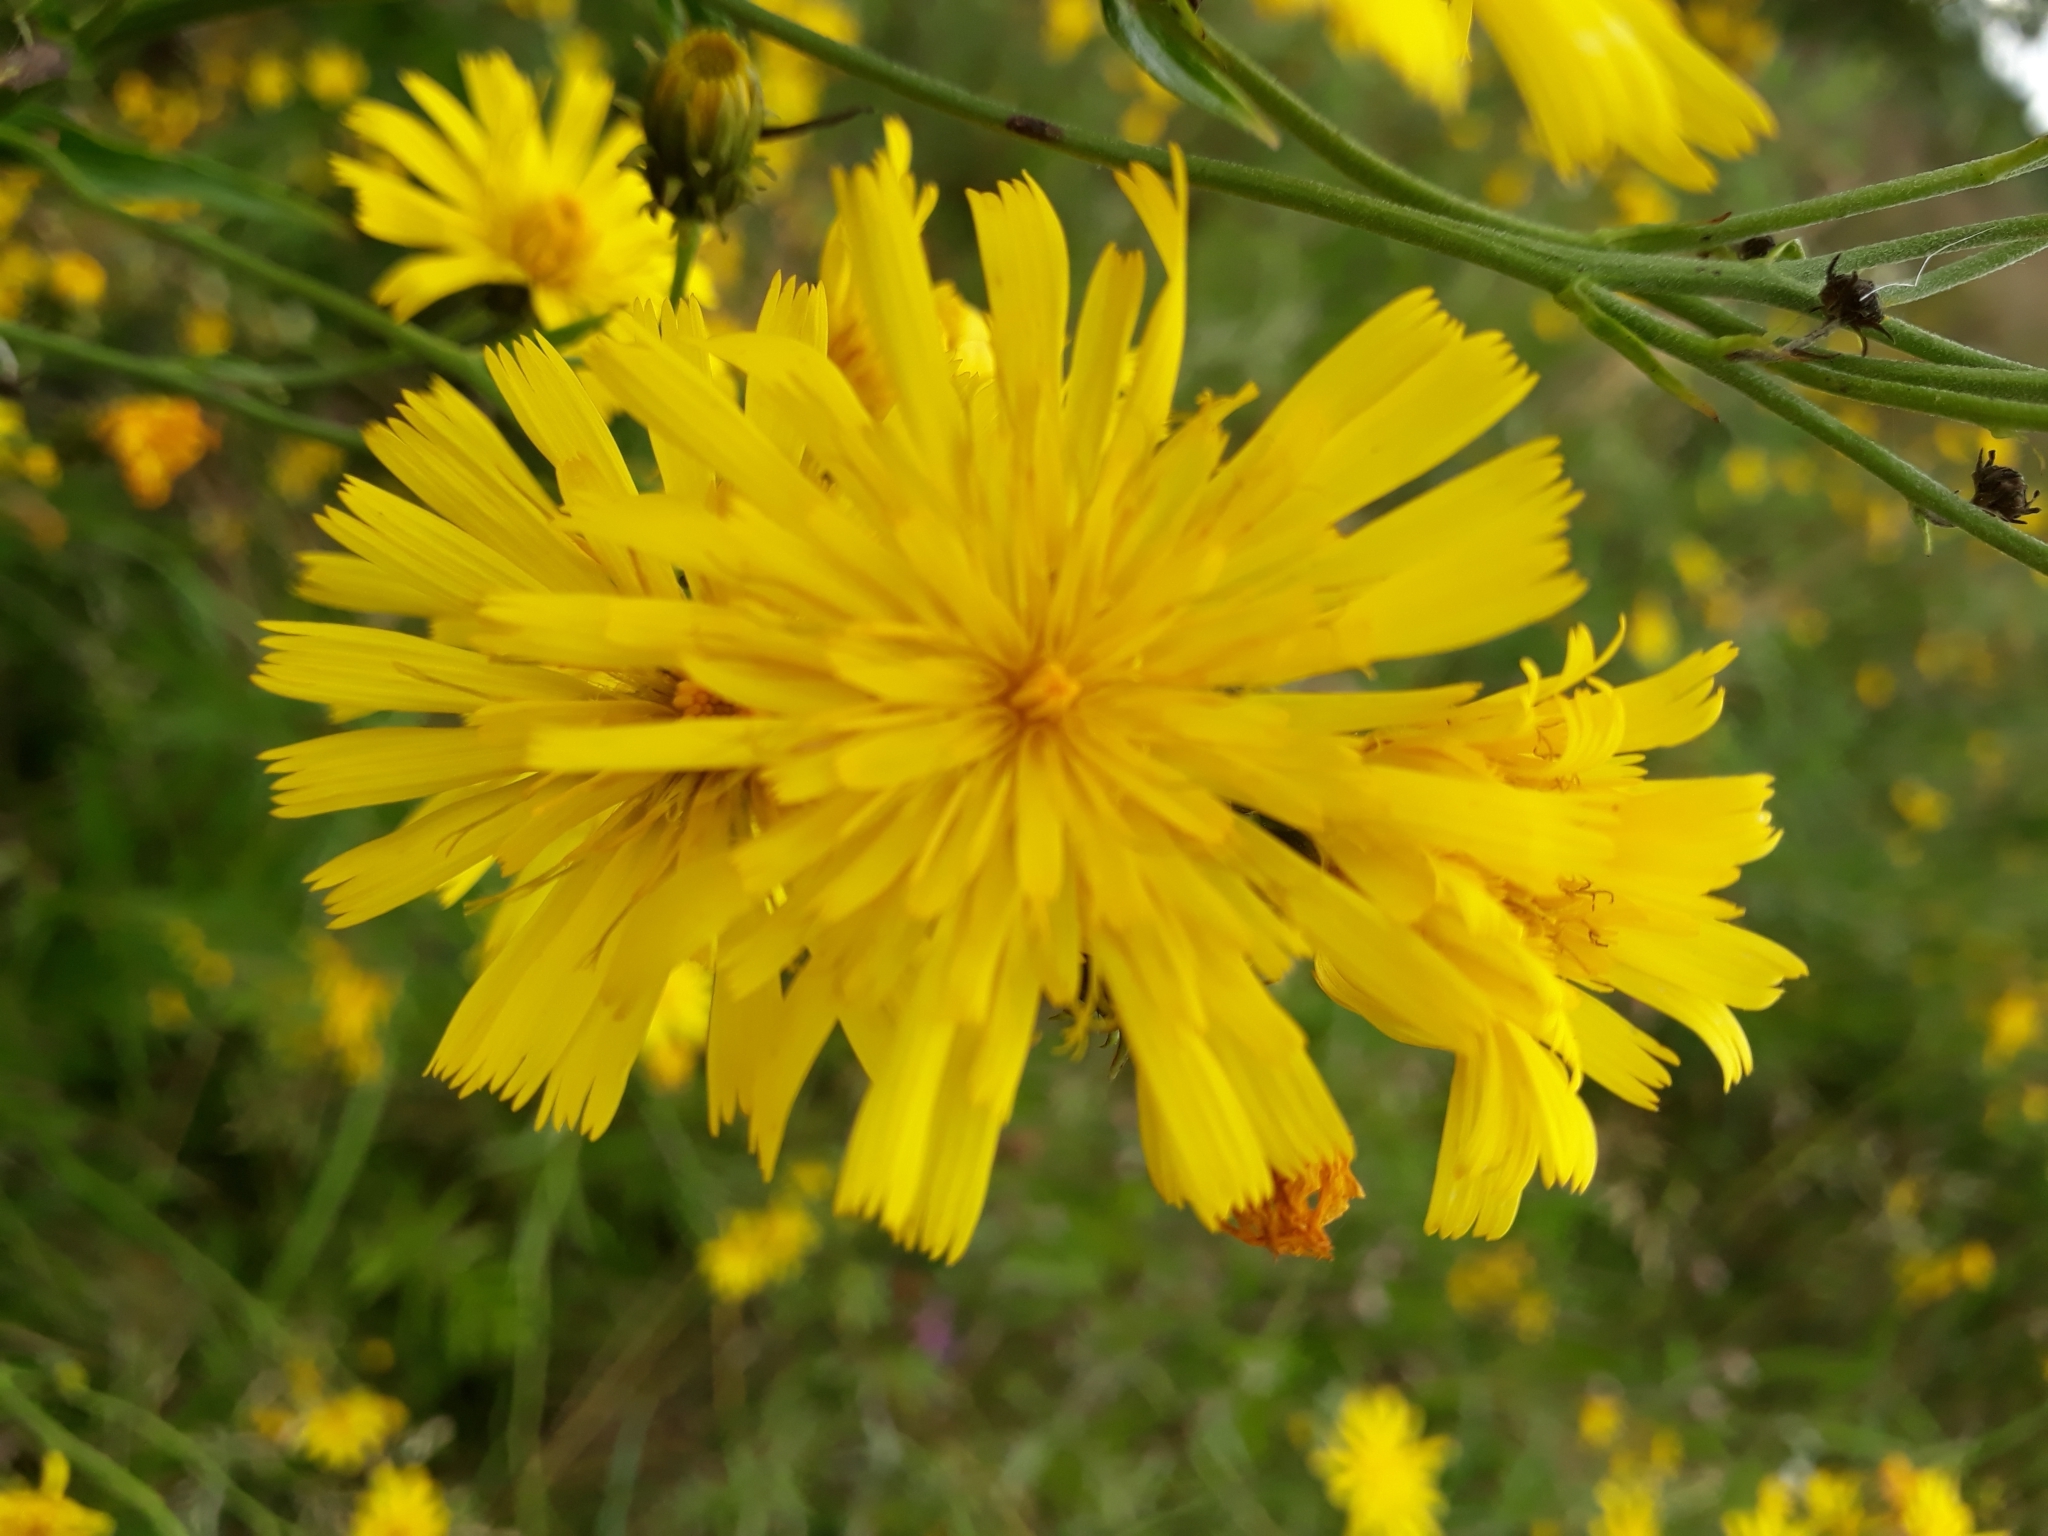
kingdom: Plantae
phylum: Tracheophyta
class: Magnoliopsida
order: Asterales
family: Asteraceae
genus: Hieracium
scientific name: Hieracium umbellatum
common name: Northern hawkweed
